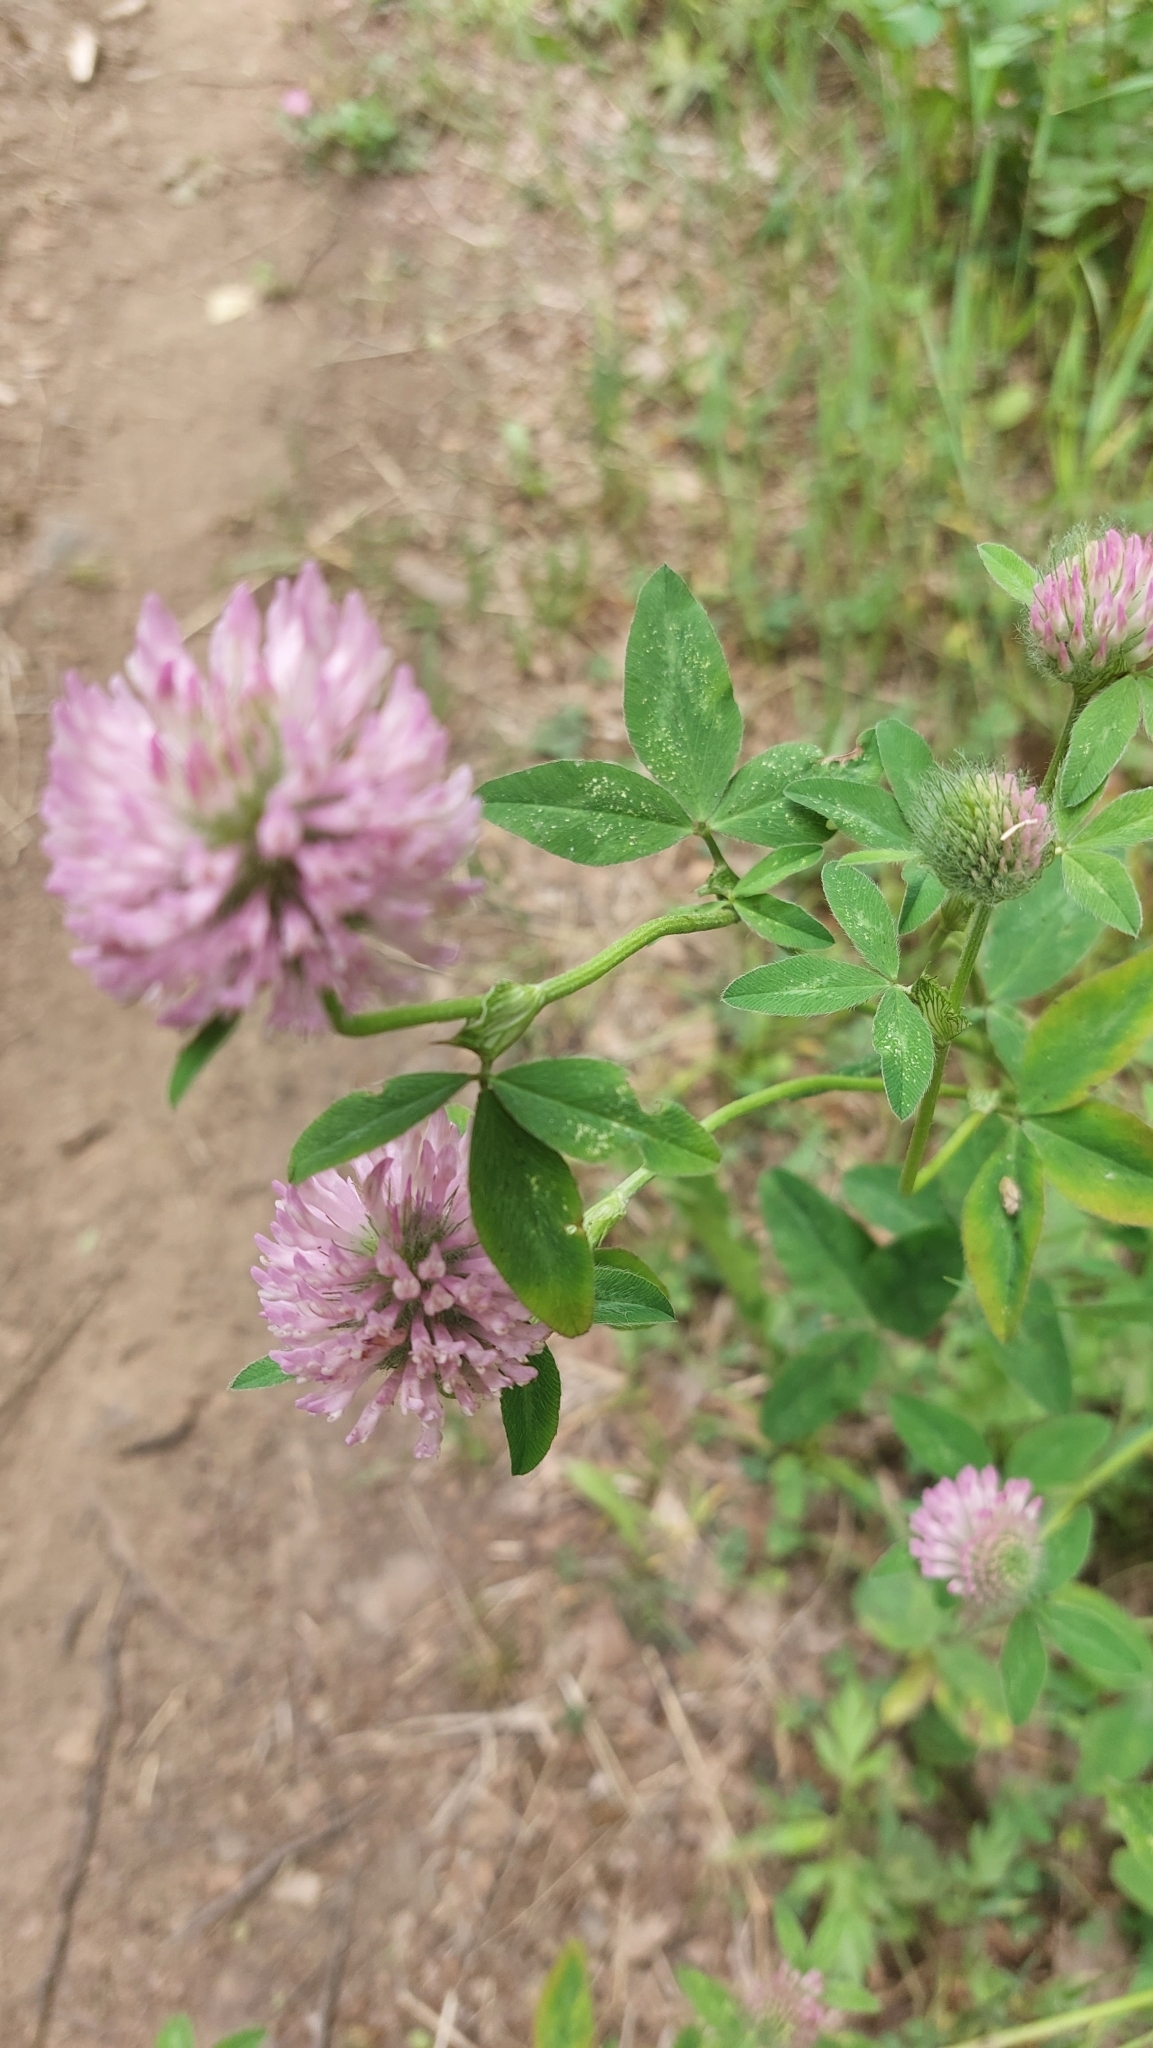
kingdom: Plantae
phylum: Tracheophyta
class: Magnoliopsida
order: Fabales
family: Fabaceae
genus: Trifolium
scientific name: Trifolium pratense
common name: Red clover
